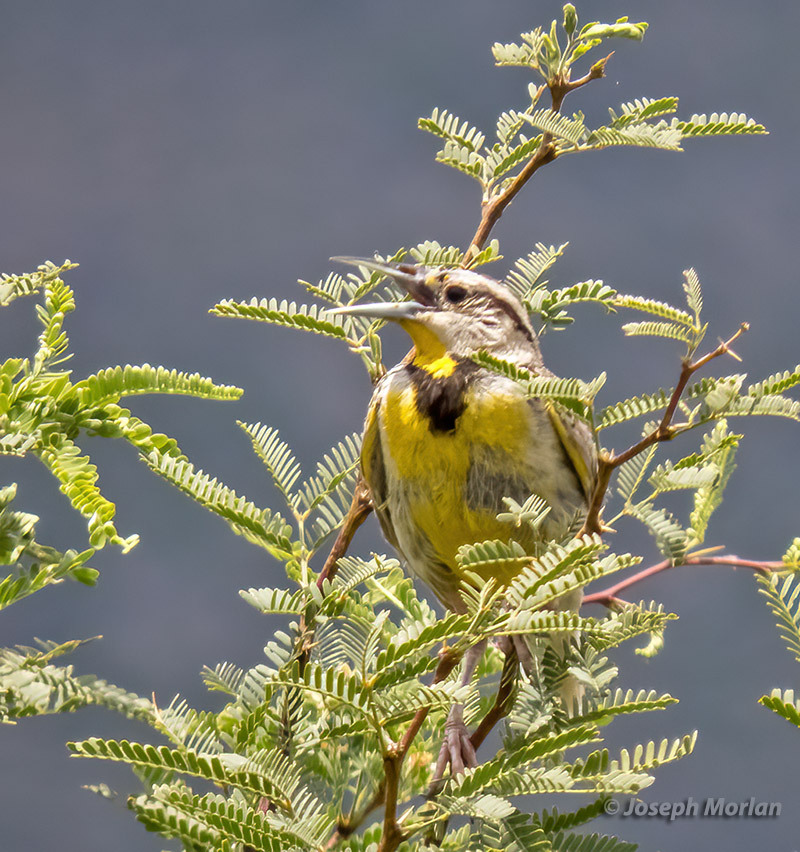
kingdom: Animalia
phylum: Chordata
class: Aves
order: Passeriformes
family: Icteridae
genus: Sturnella
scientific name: Sturnella lilianae
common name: Lilian's meadowlark
